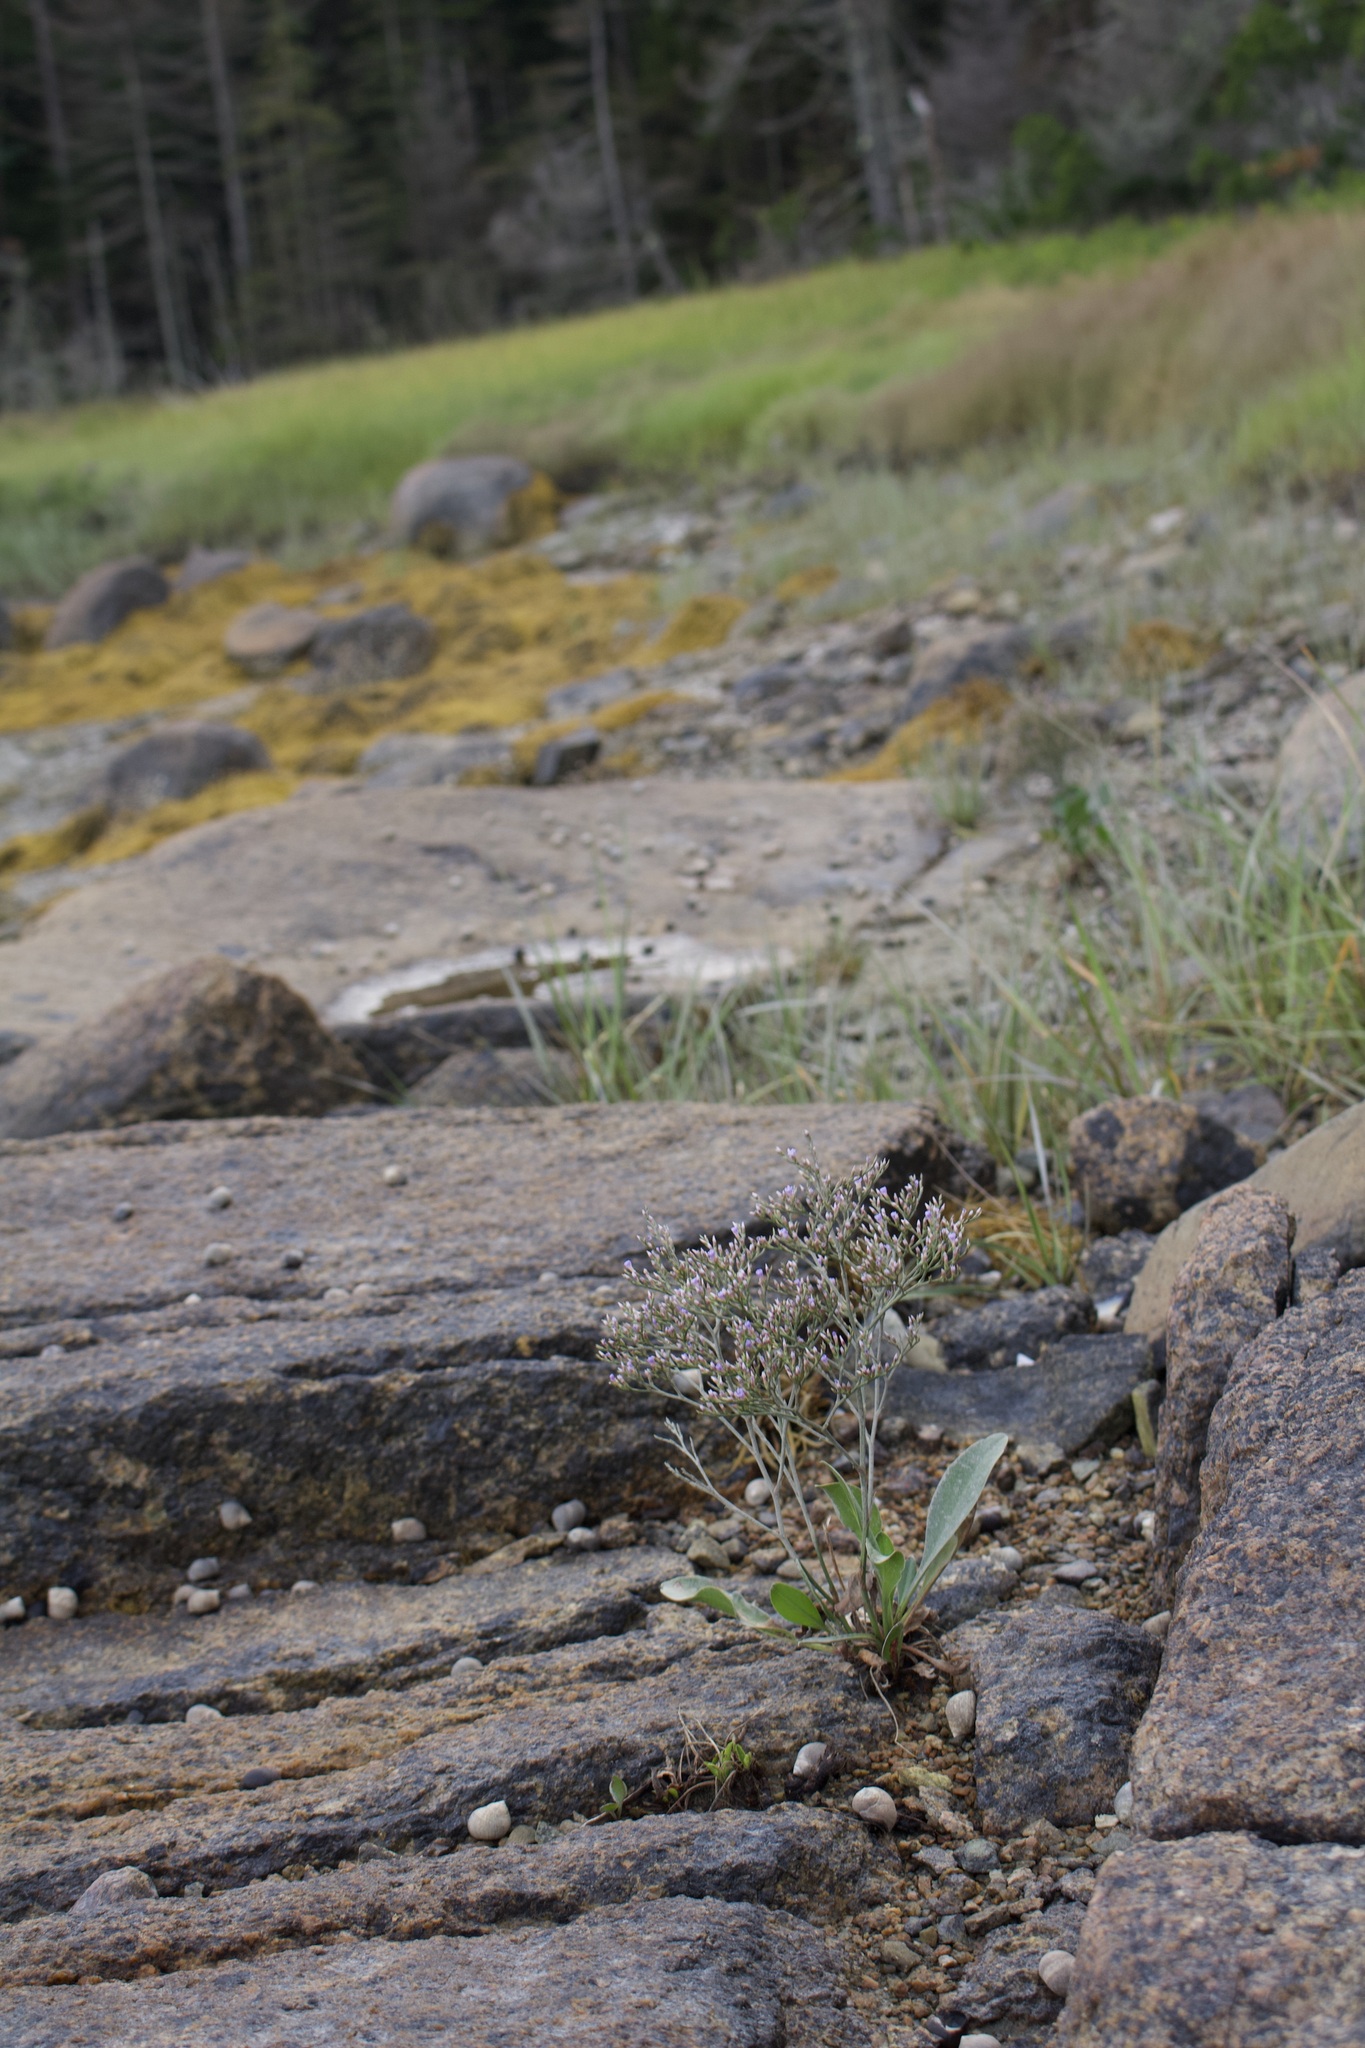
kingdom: Plantae
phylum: Tracheophyta
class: Magnoliopsida
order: Caryophyllales
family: Plumbaginaceae
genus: Limonium
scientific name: Limonium carolinianum
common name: Carolina sea lavender
